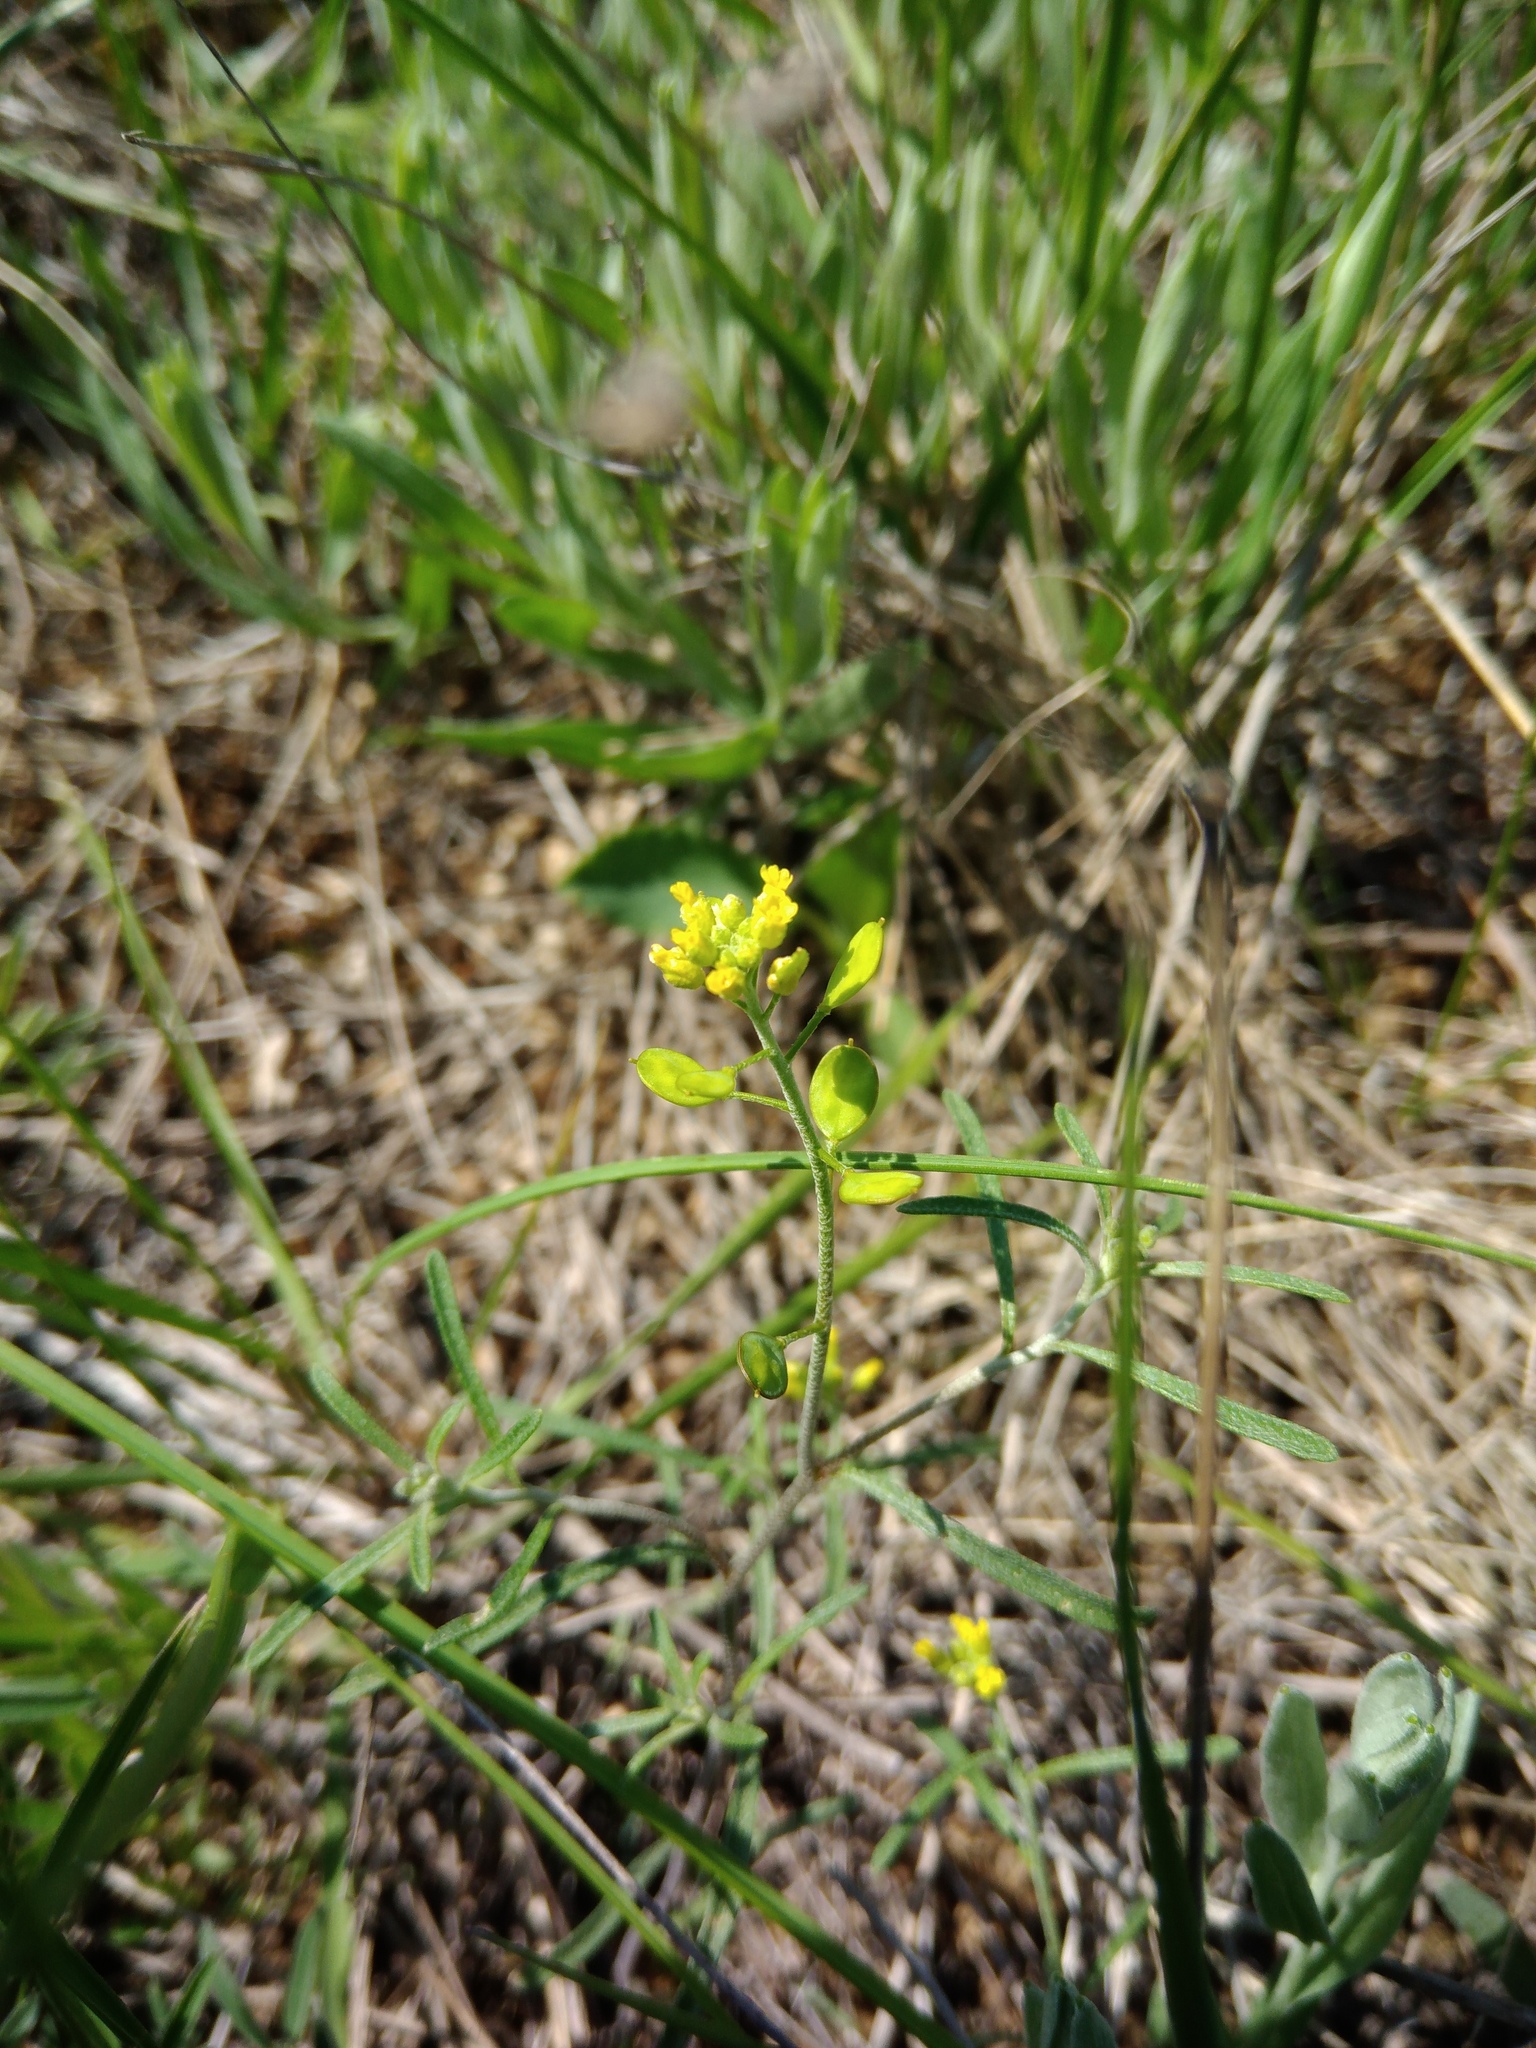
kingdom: Plantae
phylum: Tracheophyta
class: Magnoliopsida
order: Brassicales
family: Brassicaceae
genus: Meniocus
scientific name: Meniocus linifolius
